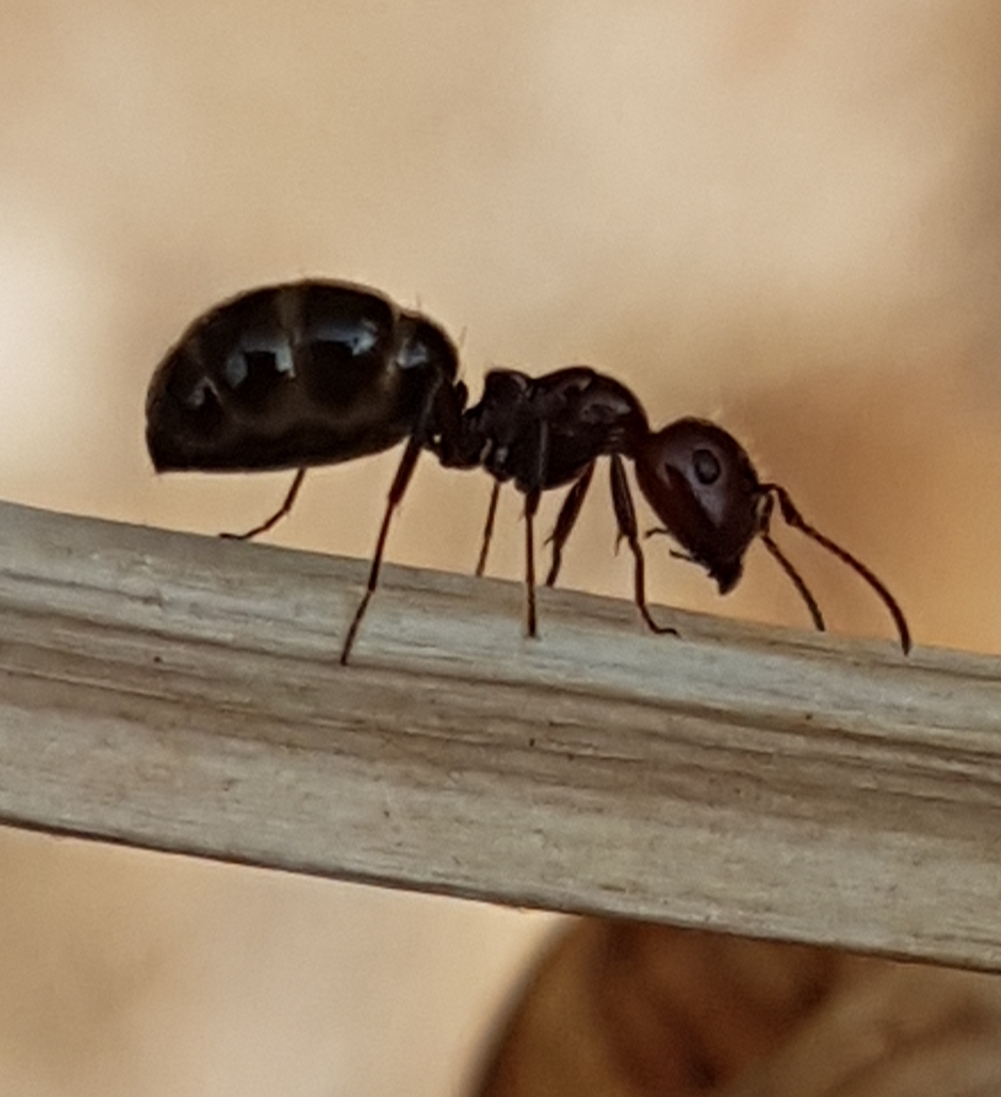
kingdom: Animalia
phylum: Arthropoda
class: Insecta
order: Hymenoptera
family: Formicidae
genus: Camponotus
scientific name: Camponotus lateralis
